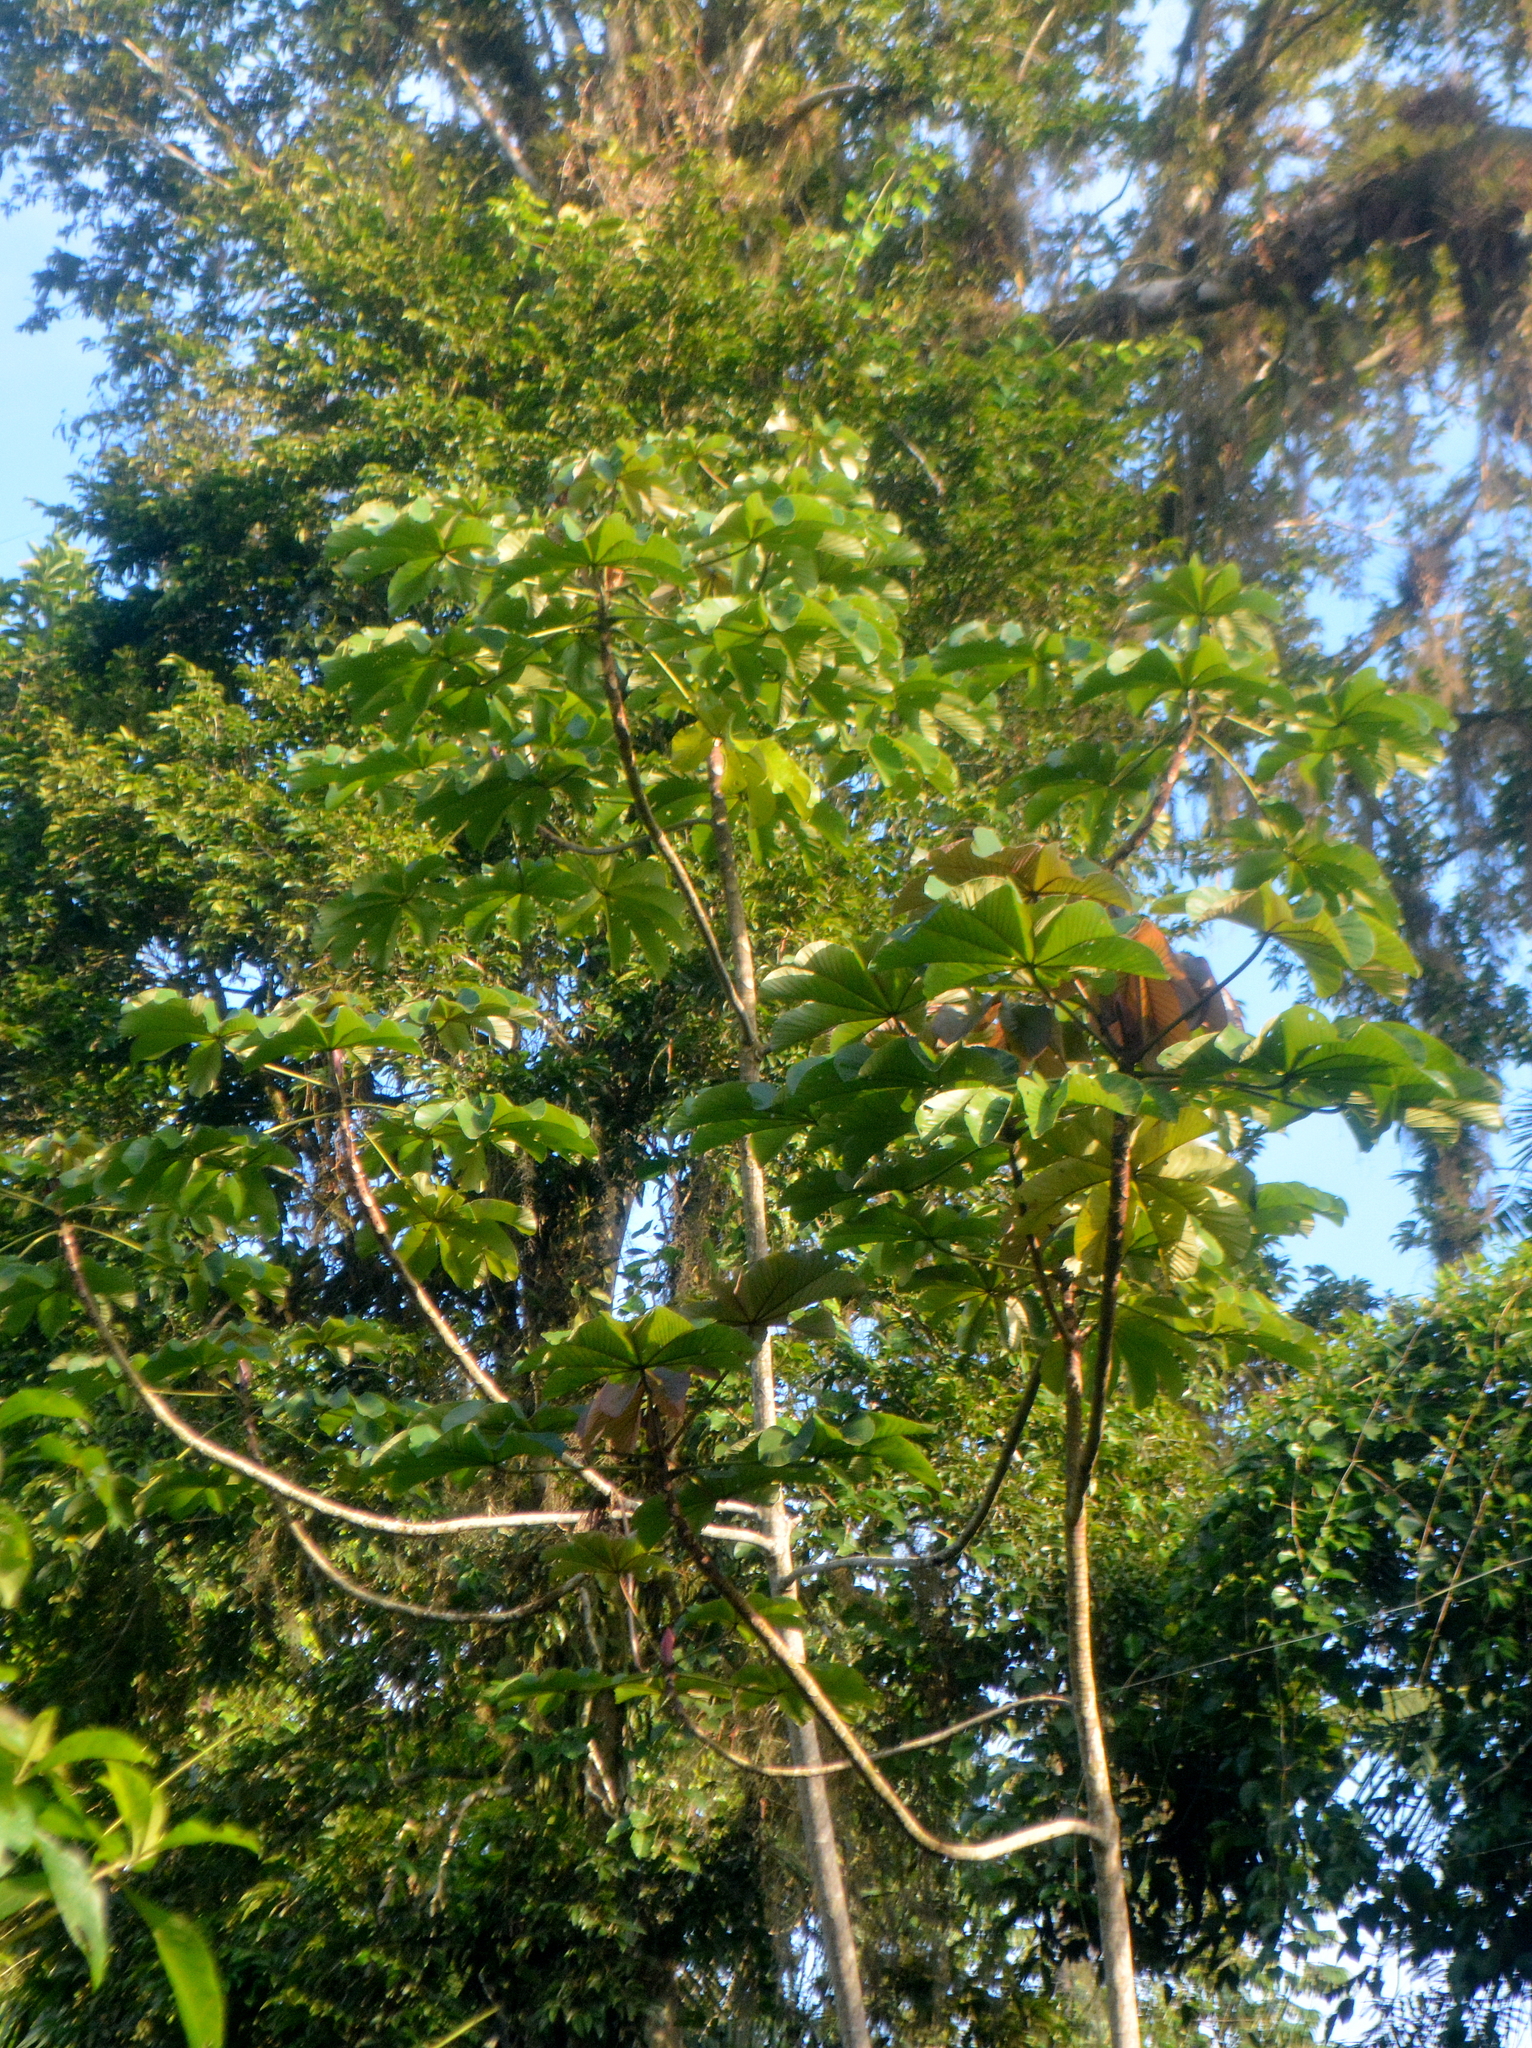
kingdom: Plantae
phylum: Tracheophyta
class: Magnoliopsida
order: Rosales
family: Urticaceae
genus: Cecropia
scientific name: Cecropia glaziovii
